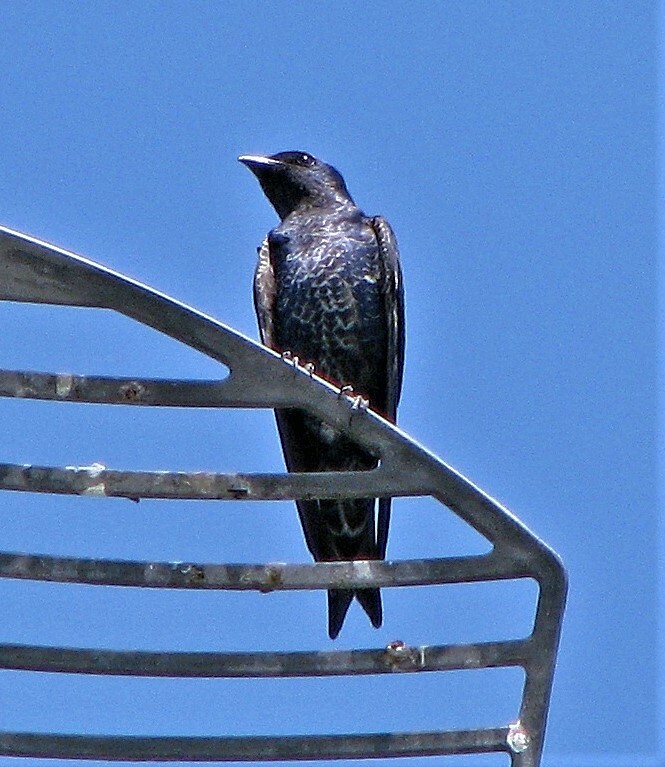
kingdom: Animalia
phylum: Chordata
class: Aves
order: Passeriformes
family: Hirundinidae
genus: Progne
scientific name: Progne elegans
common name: Southern martin
